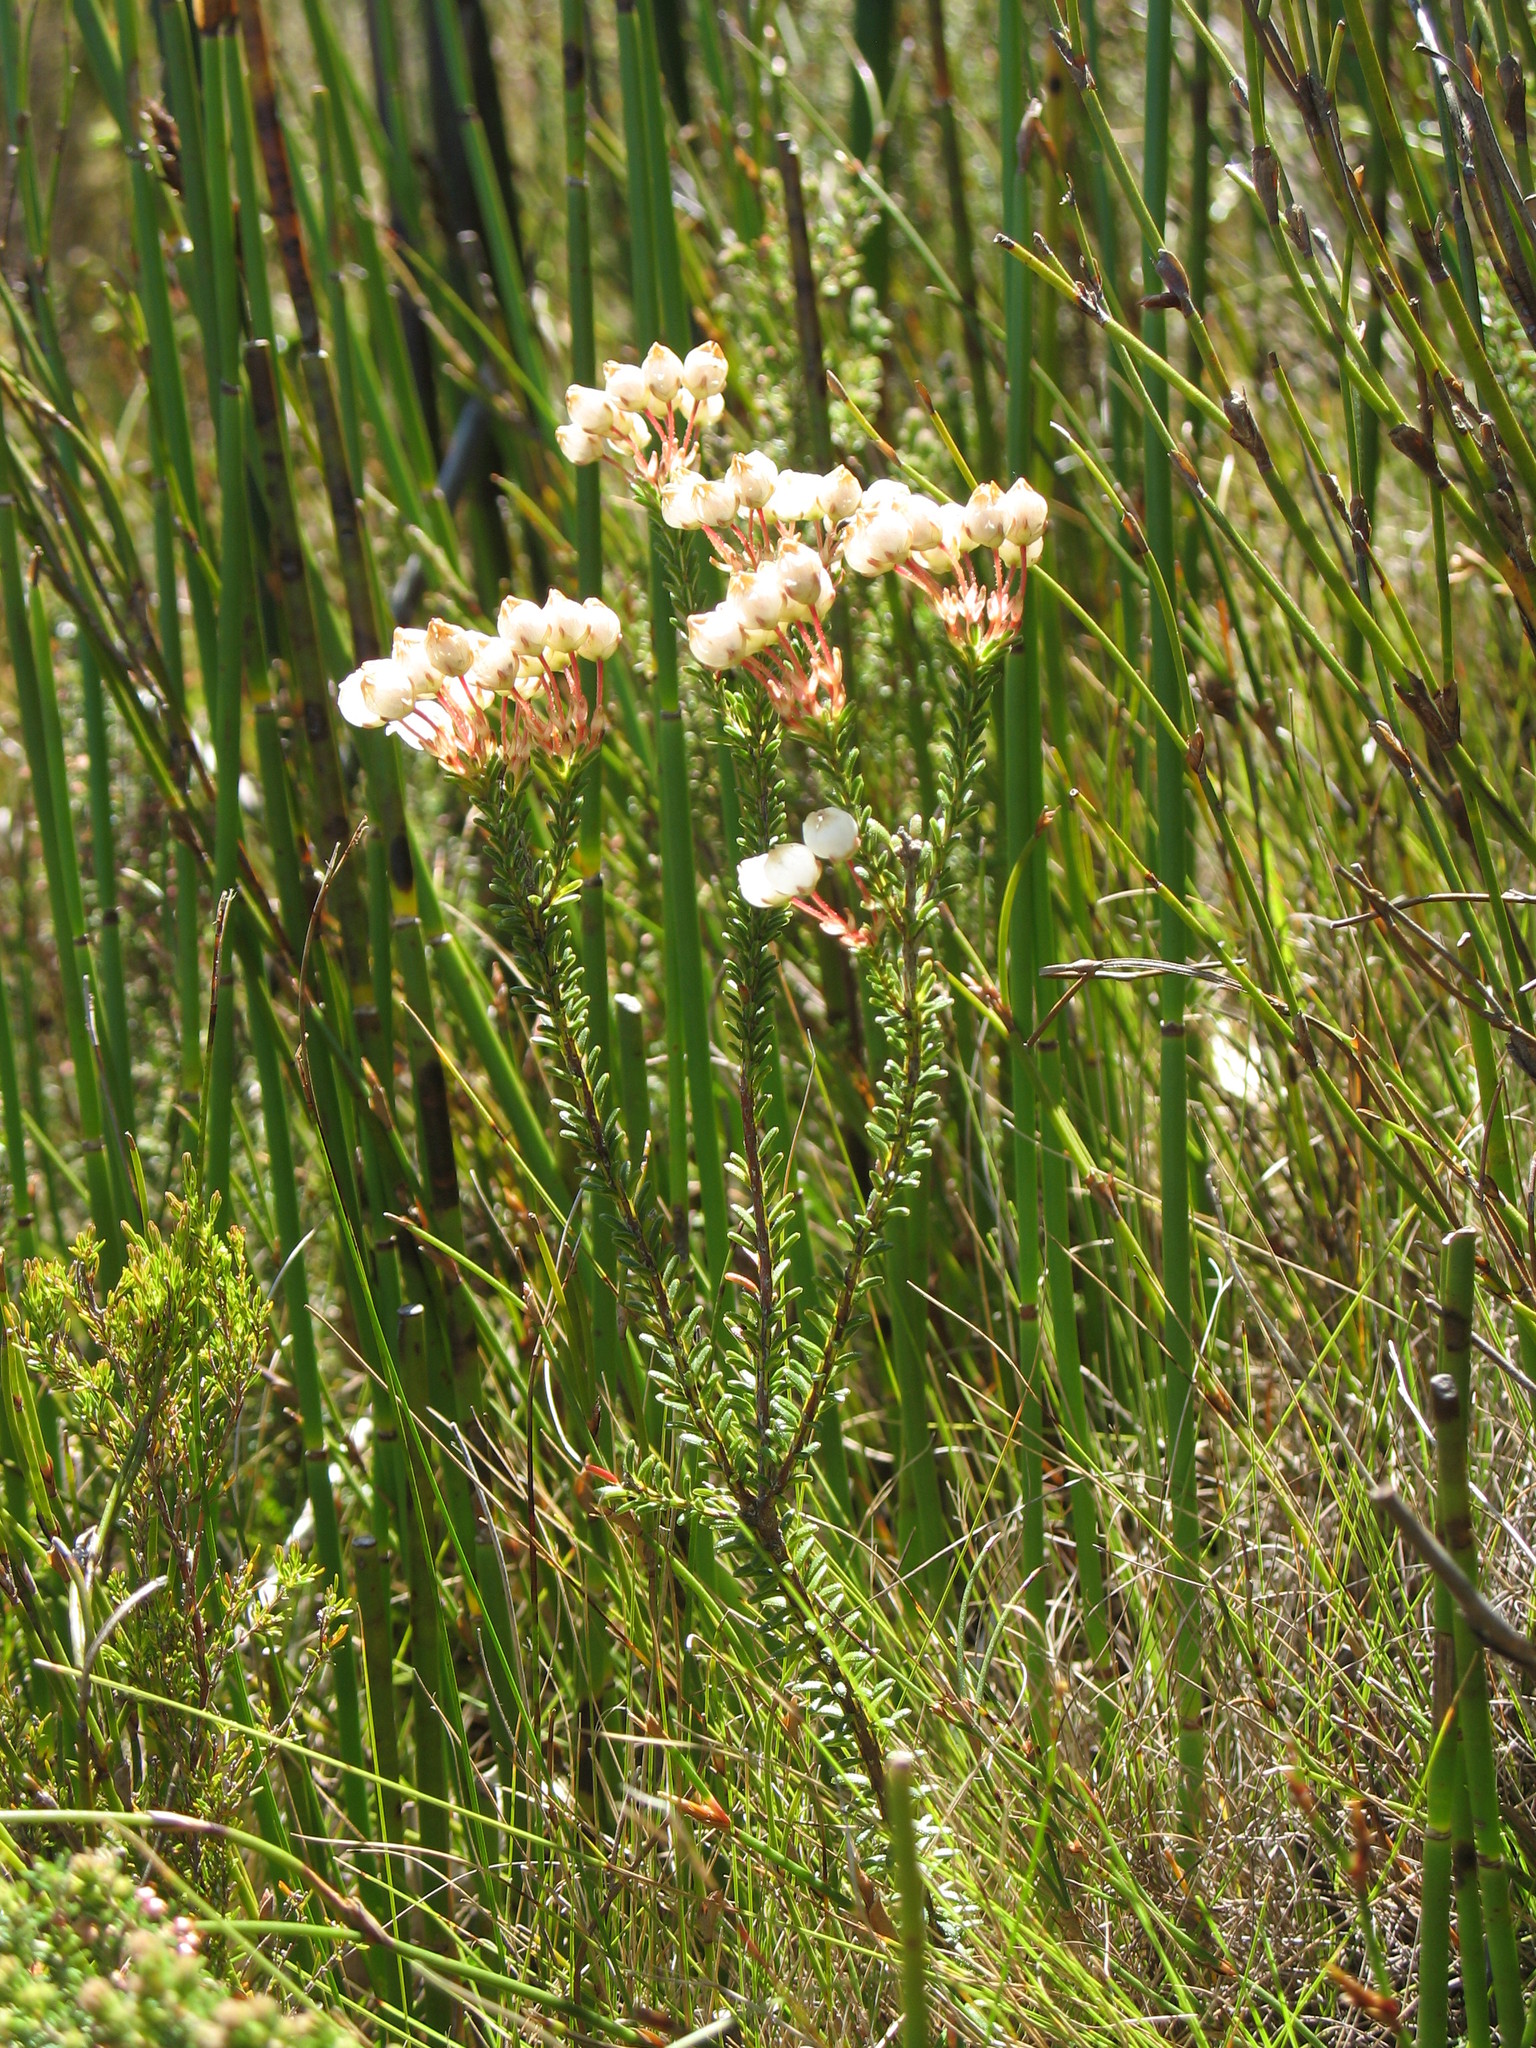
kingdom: Plantae
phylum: Tracheophyta
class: Magnoliopsida
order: Ericales
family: Ericaceae
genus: Erica
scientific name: Erica odorata
